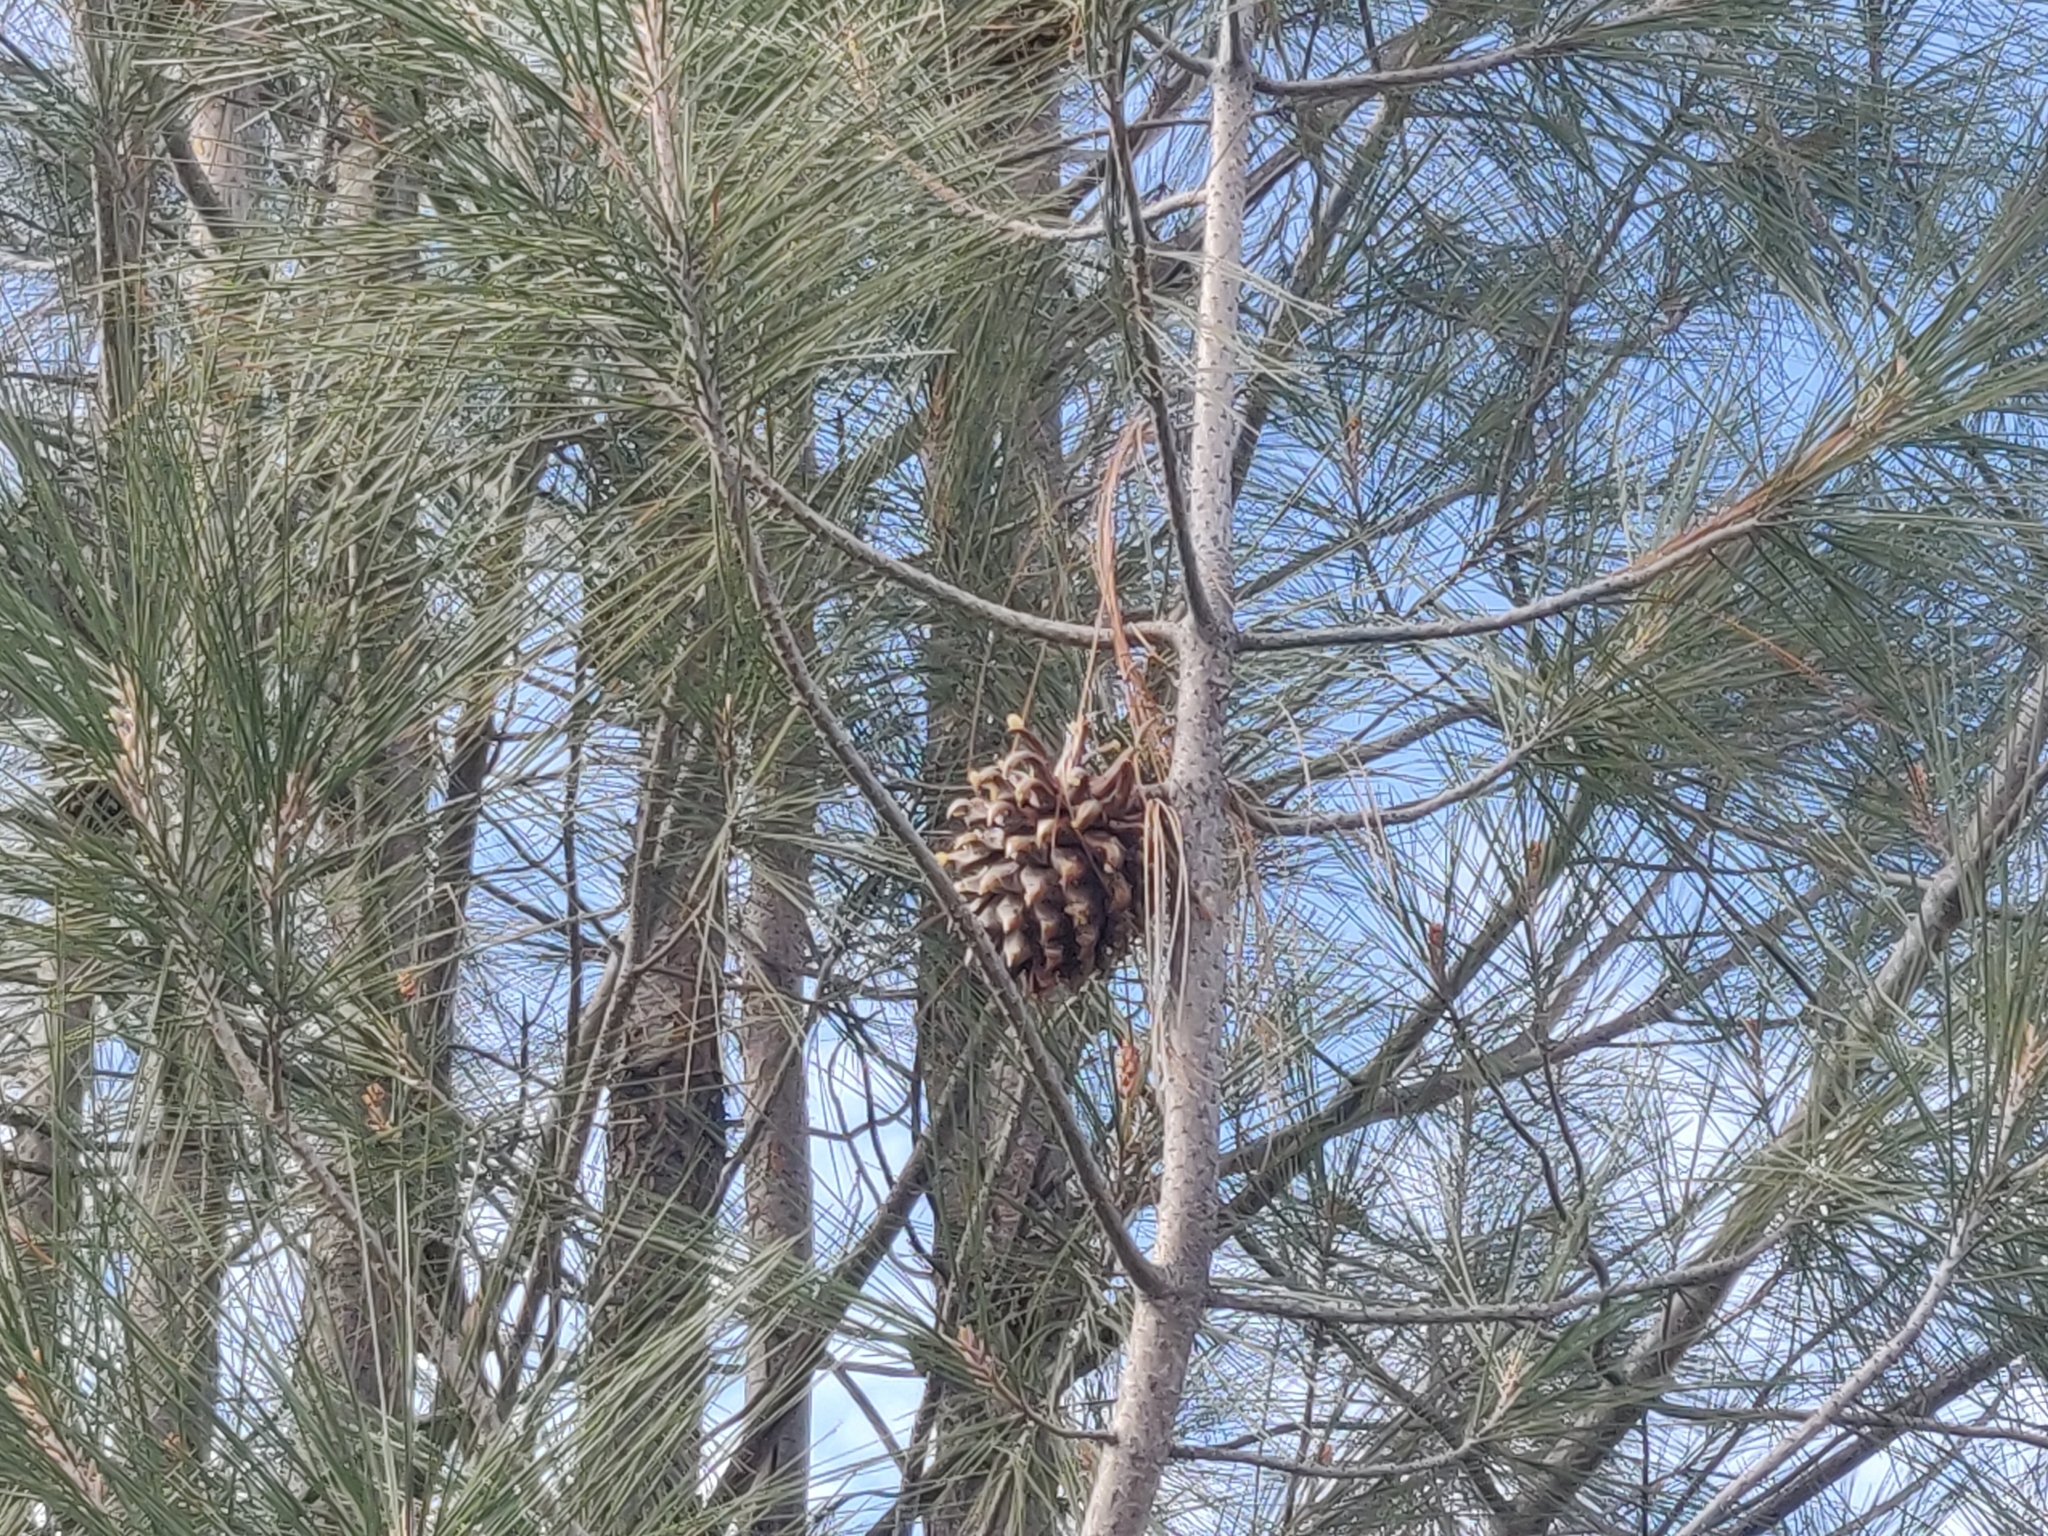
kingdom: Plantae
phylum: Tracheophyta
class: Pinopsida
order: Pinales
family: Pinaceae
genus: Pinus
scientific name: Pinus sabiniana
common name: Bull pine
